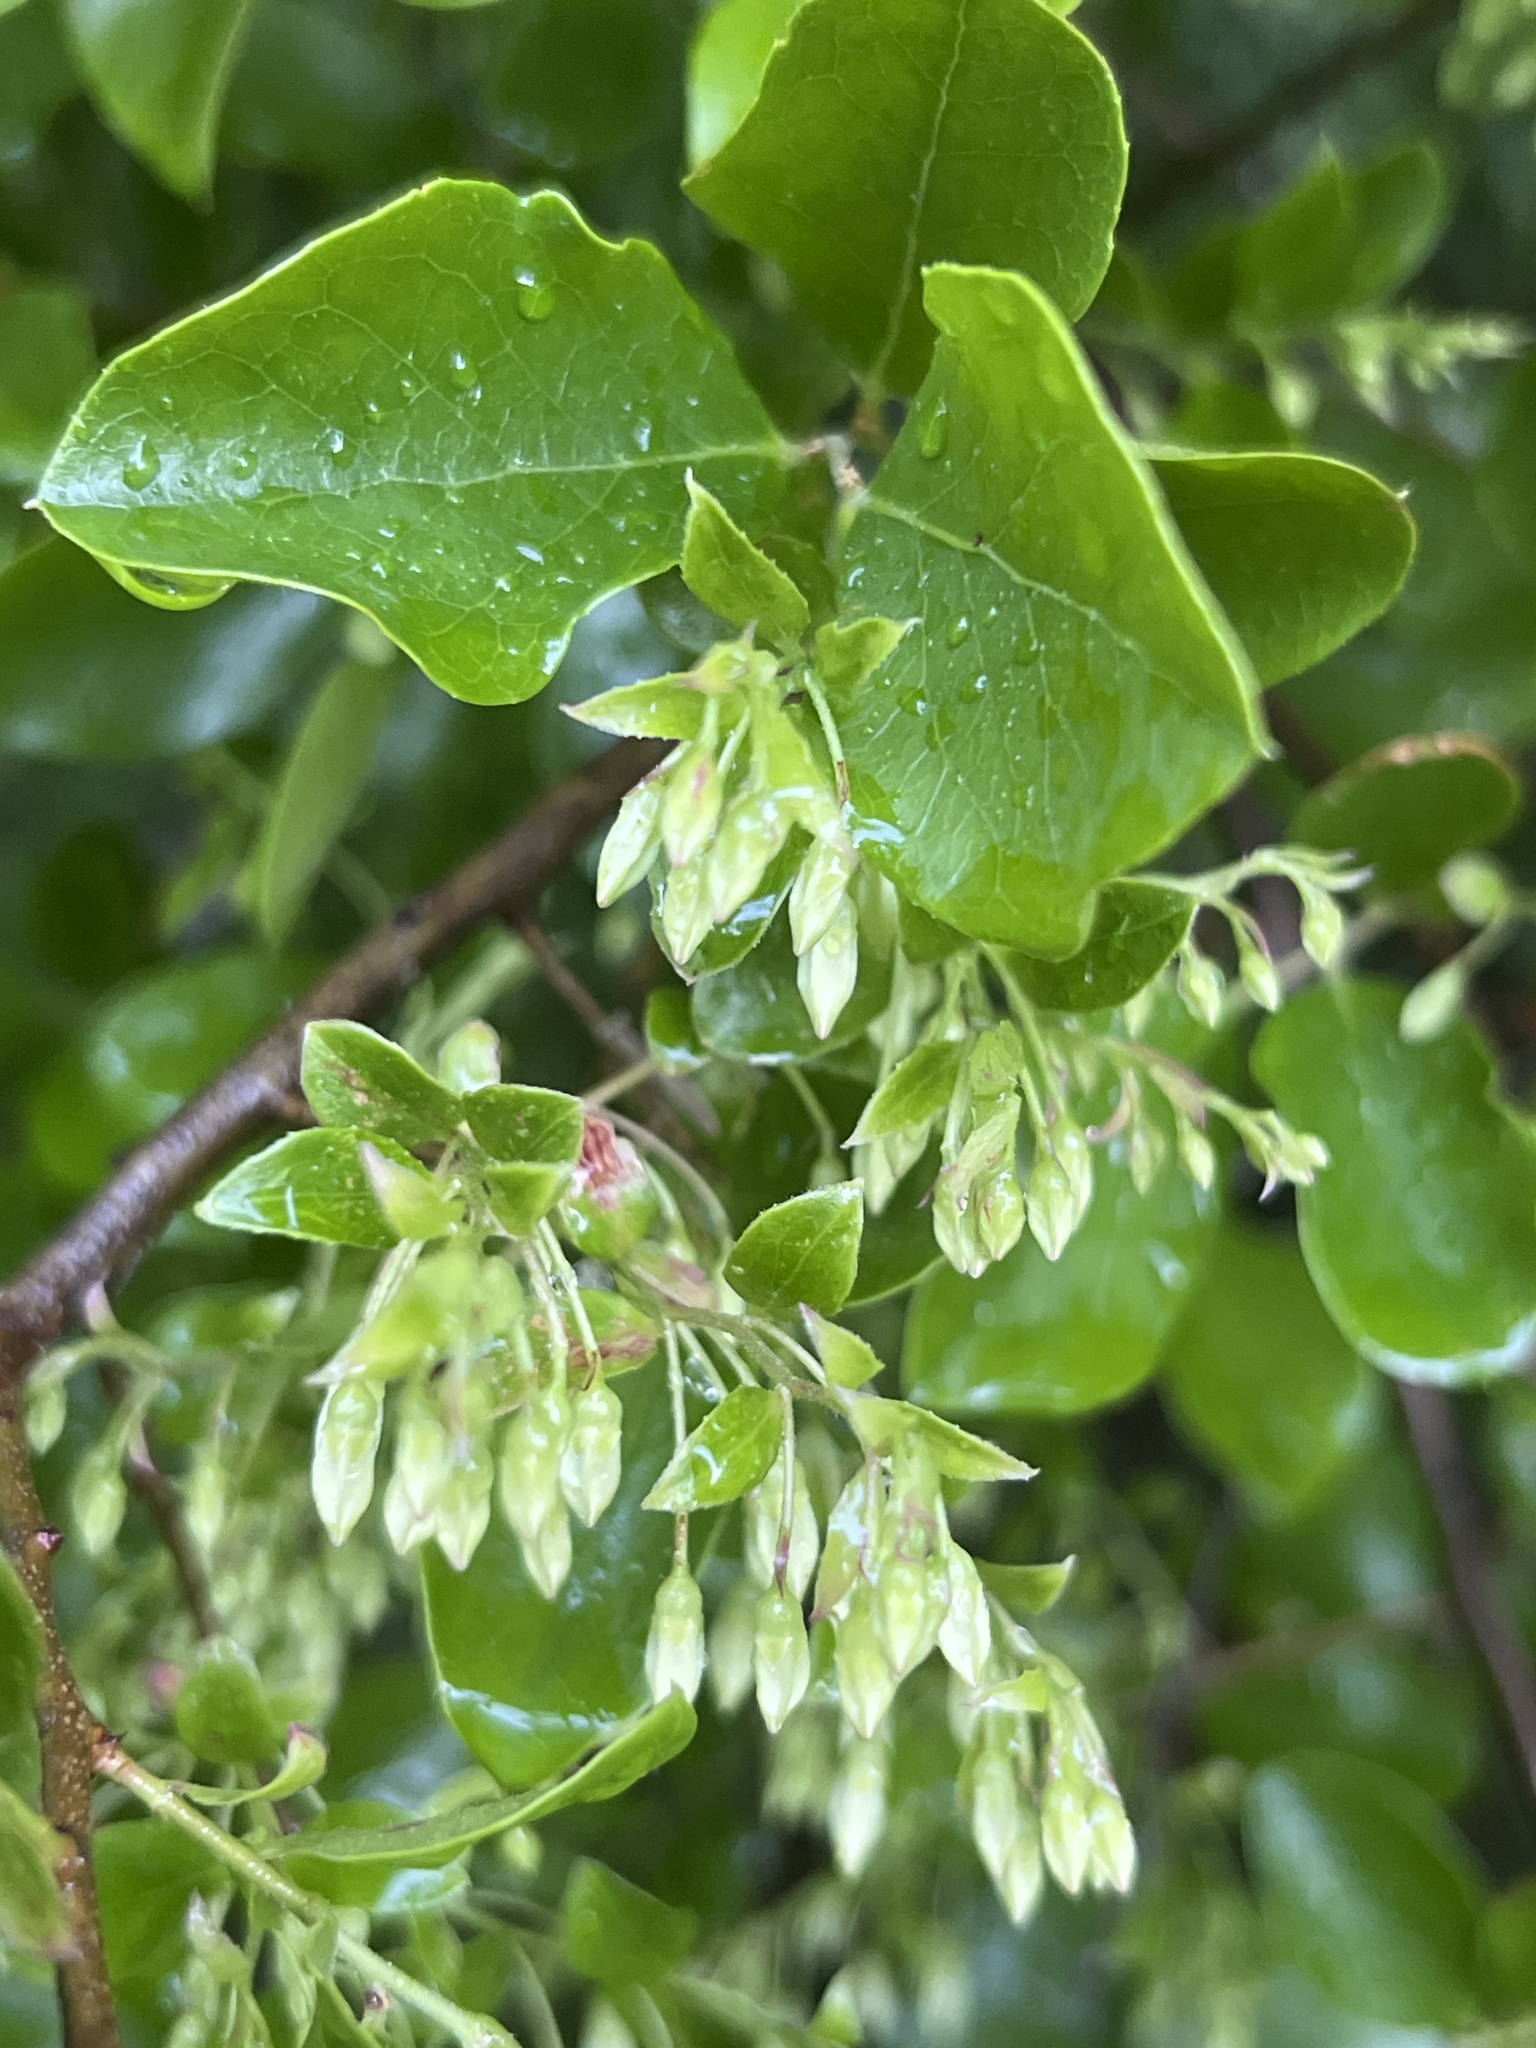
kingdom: Plantae
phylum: Tracheophyta
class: Magnoliopsida
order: Ericales
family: Ericaceae
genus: Vaccinium
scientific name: Vaccinium arboreum
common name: Farkleberry
